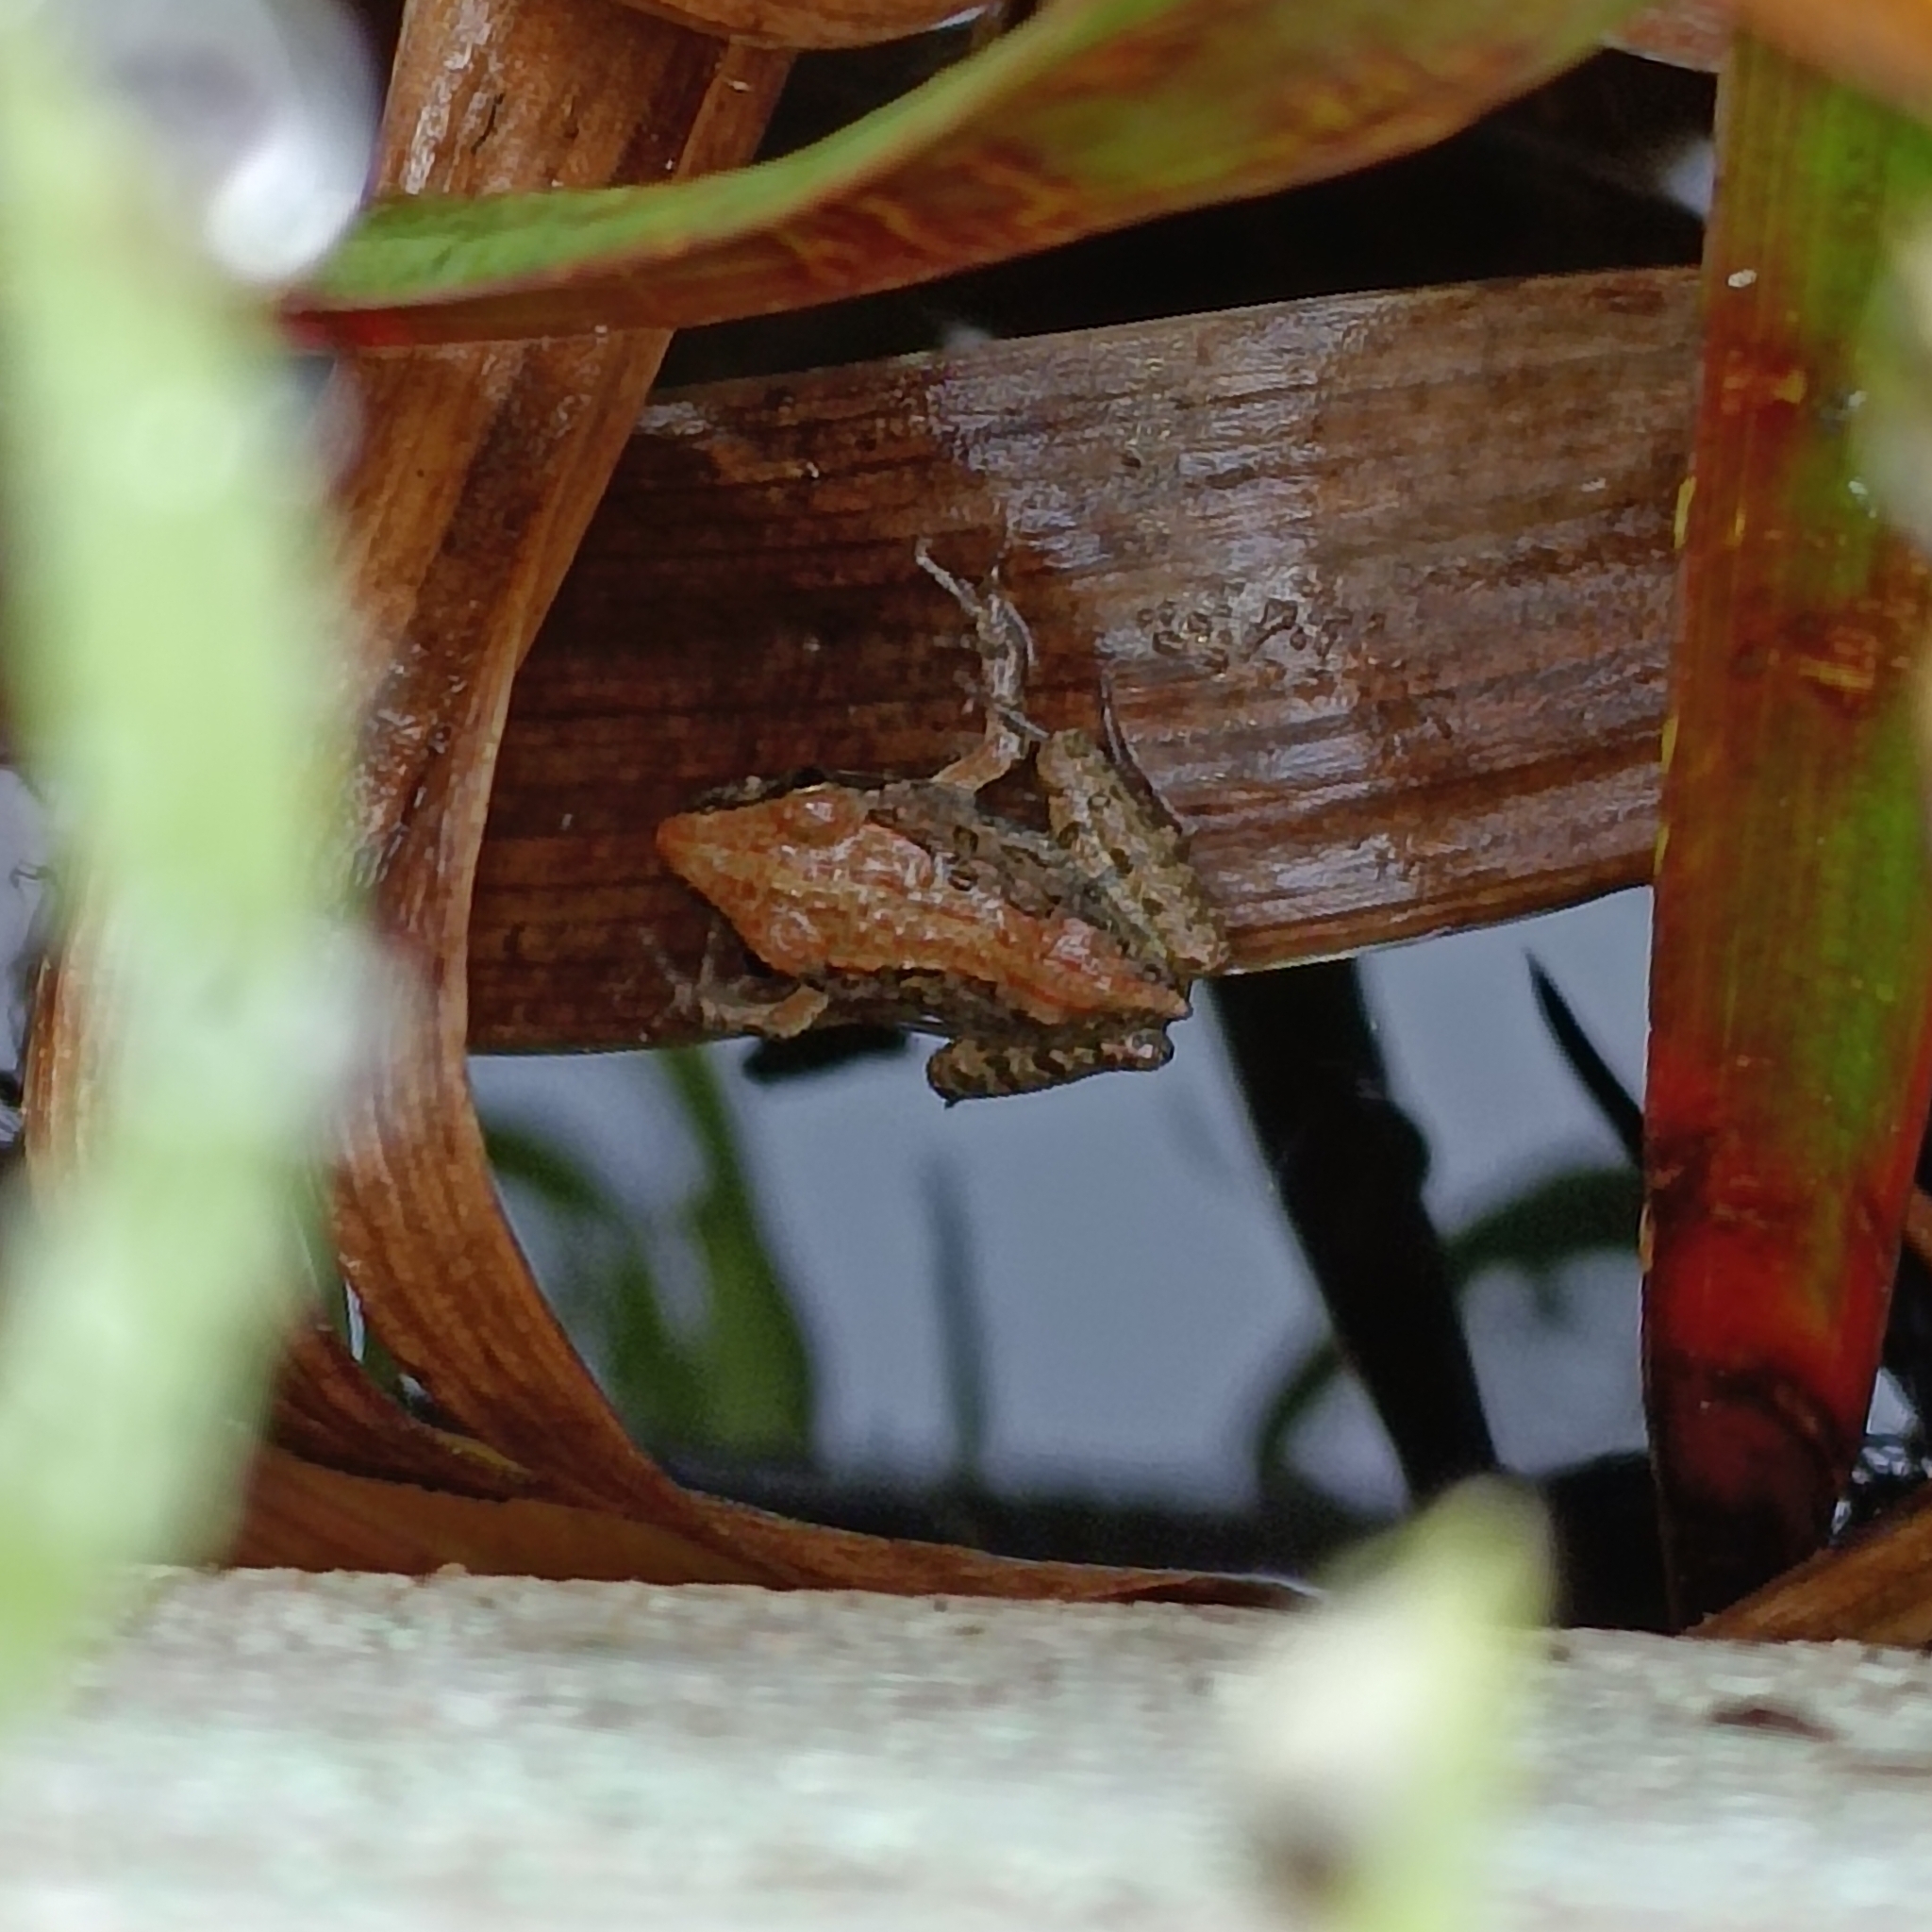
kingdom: Animalia
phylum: Chordata
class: Amphibia
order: Anura
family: Pyxicephalidae
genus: Strongylopus
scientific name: Strongylopus grayii
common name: Gray's stream frog
